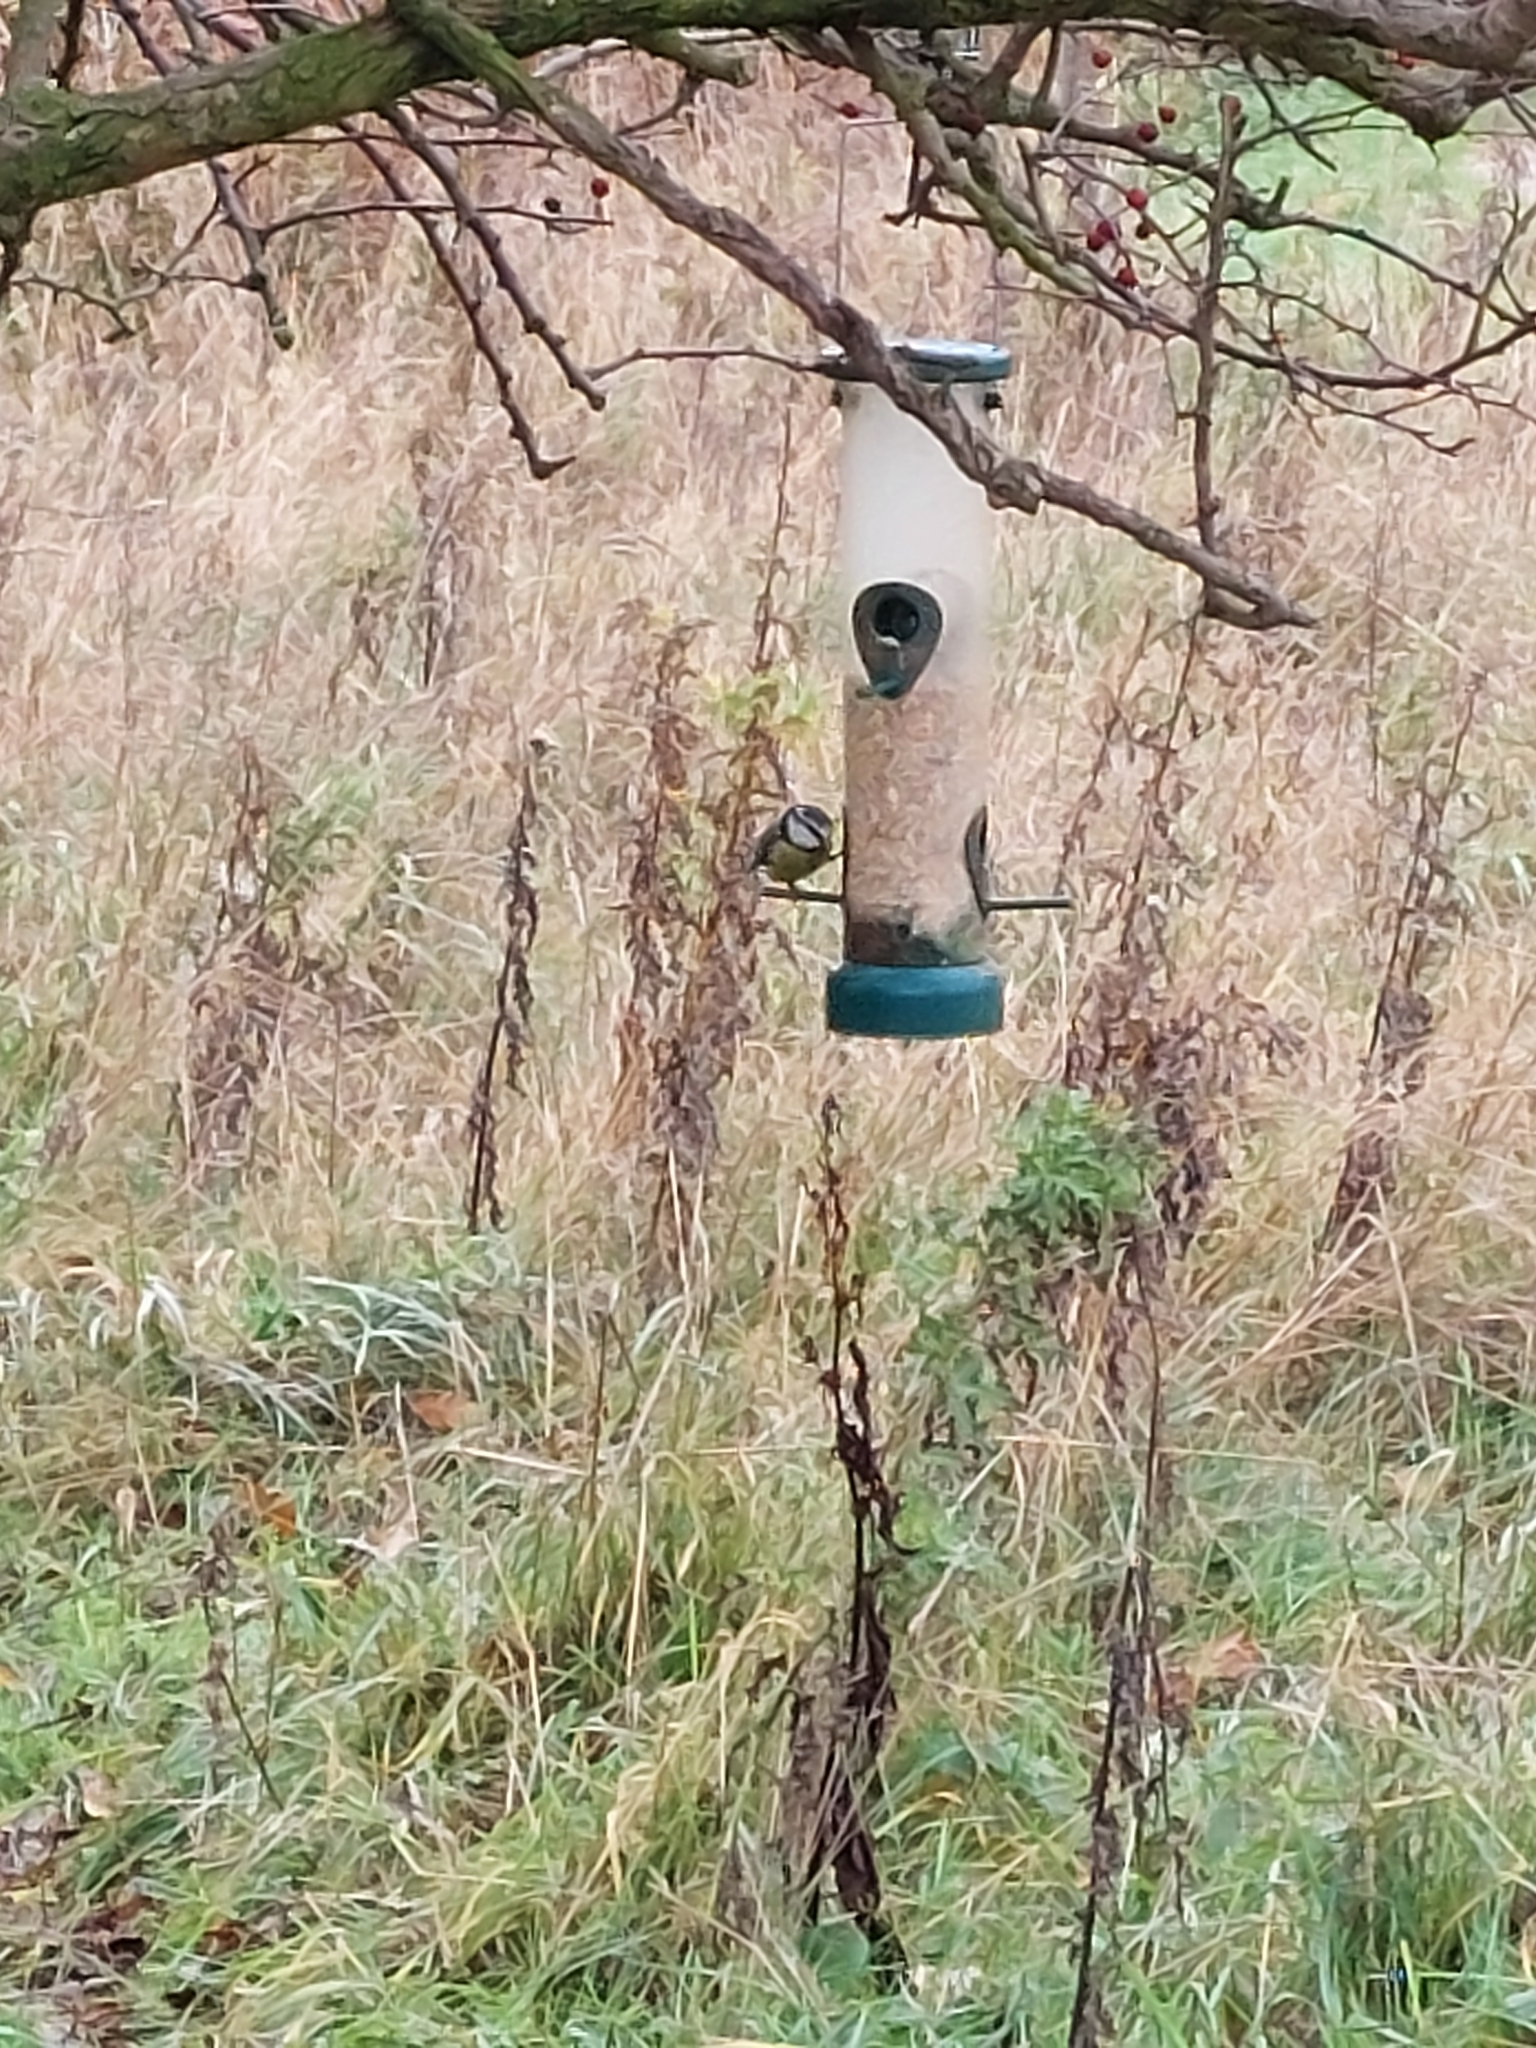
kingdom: Animalia
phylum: Chordata
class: Aves
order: Passeriformes
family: Paridae
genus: Cyanistes
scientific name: Cyanistes caeruleus
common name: Eurasian blue tit
